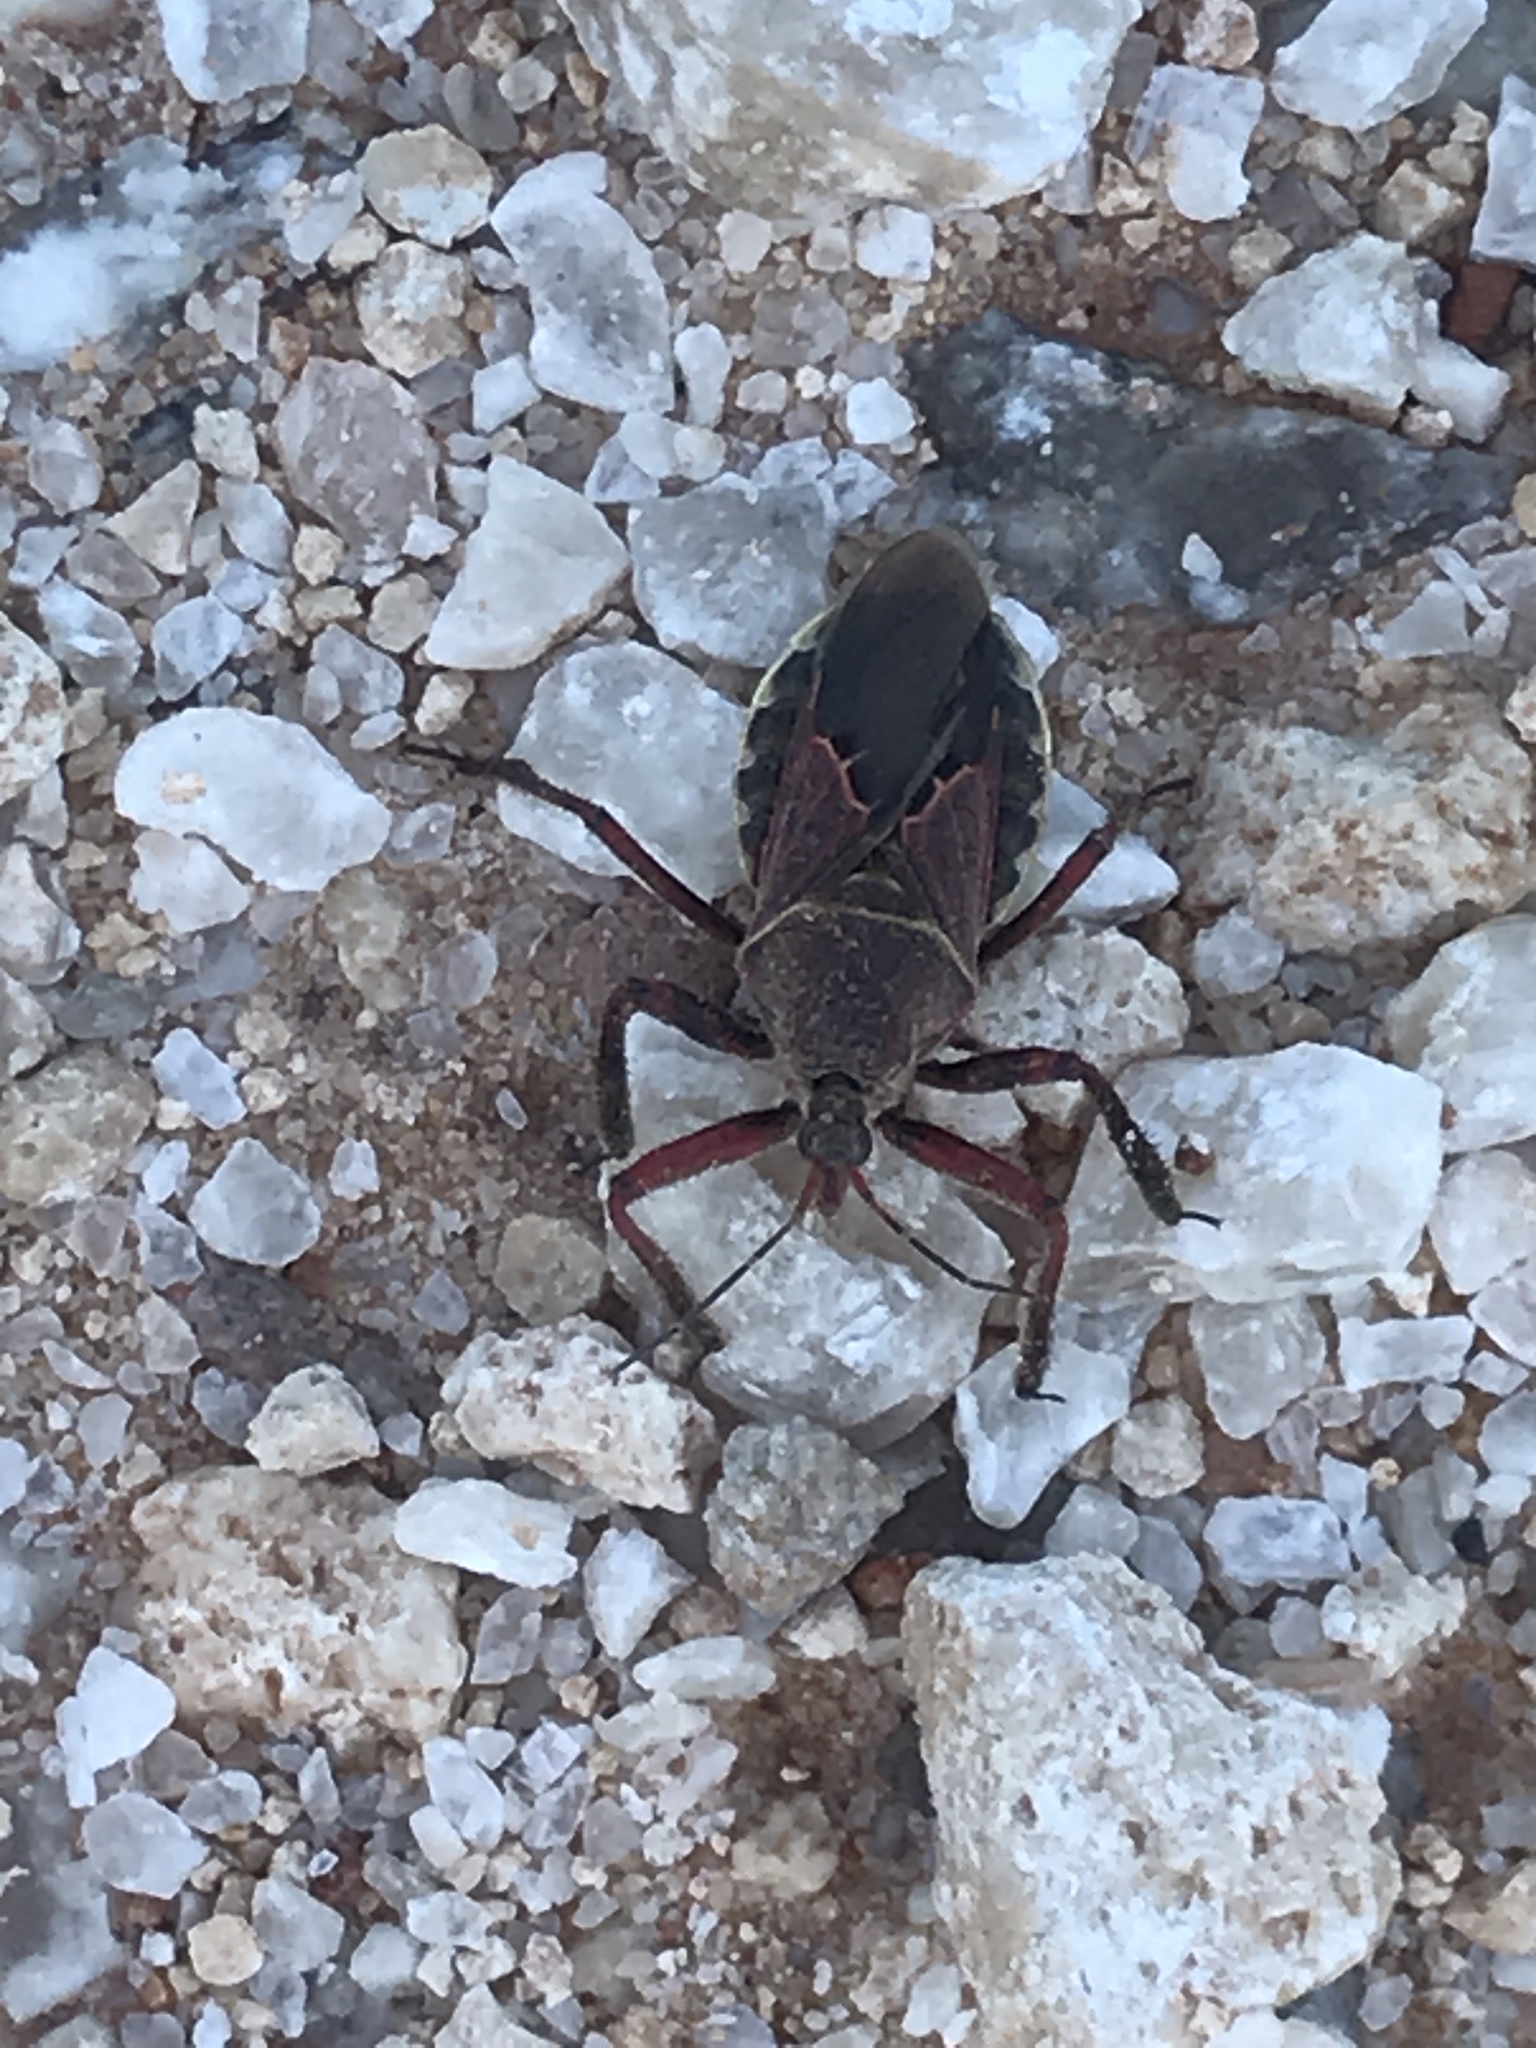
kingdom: Animalia
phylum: Arthropoda
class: Insecta
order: Hemiptera
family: Reduviidae
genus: Apiomerus
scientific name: Apiomerus spissipes
